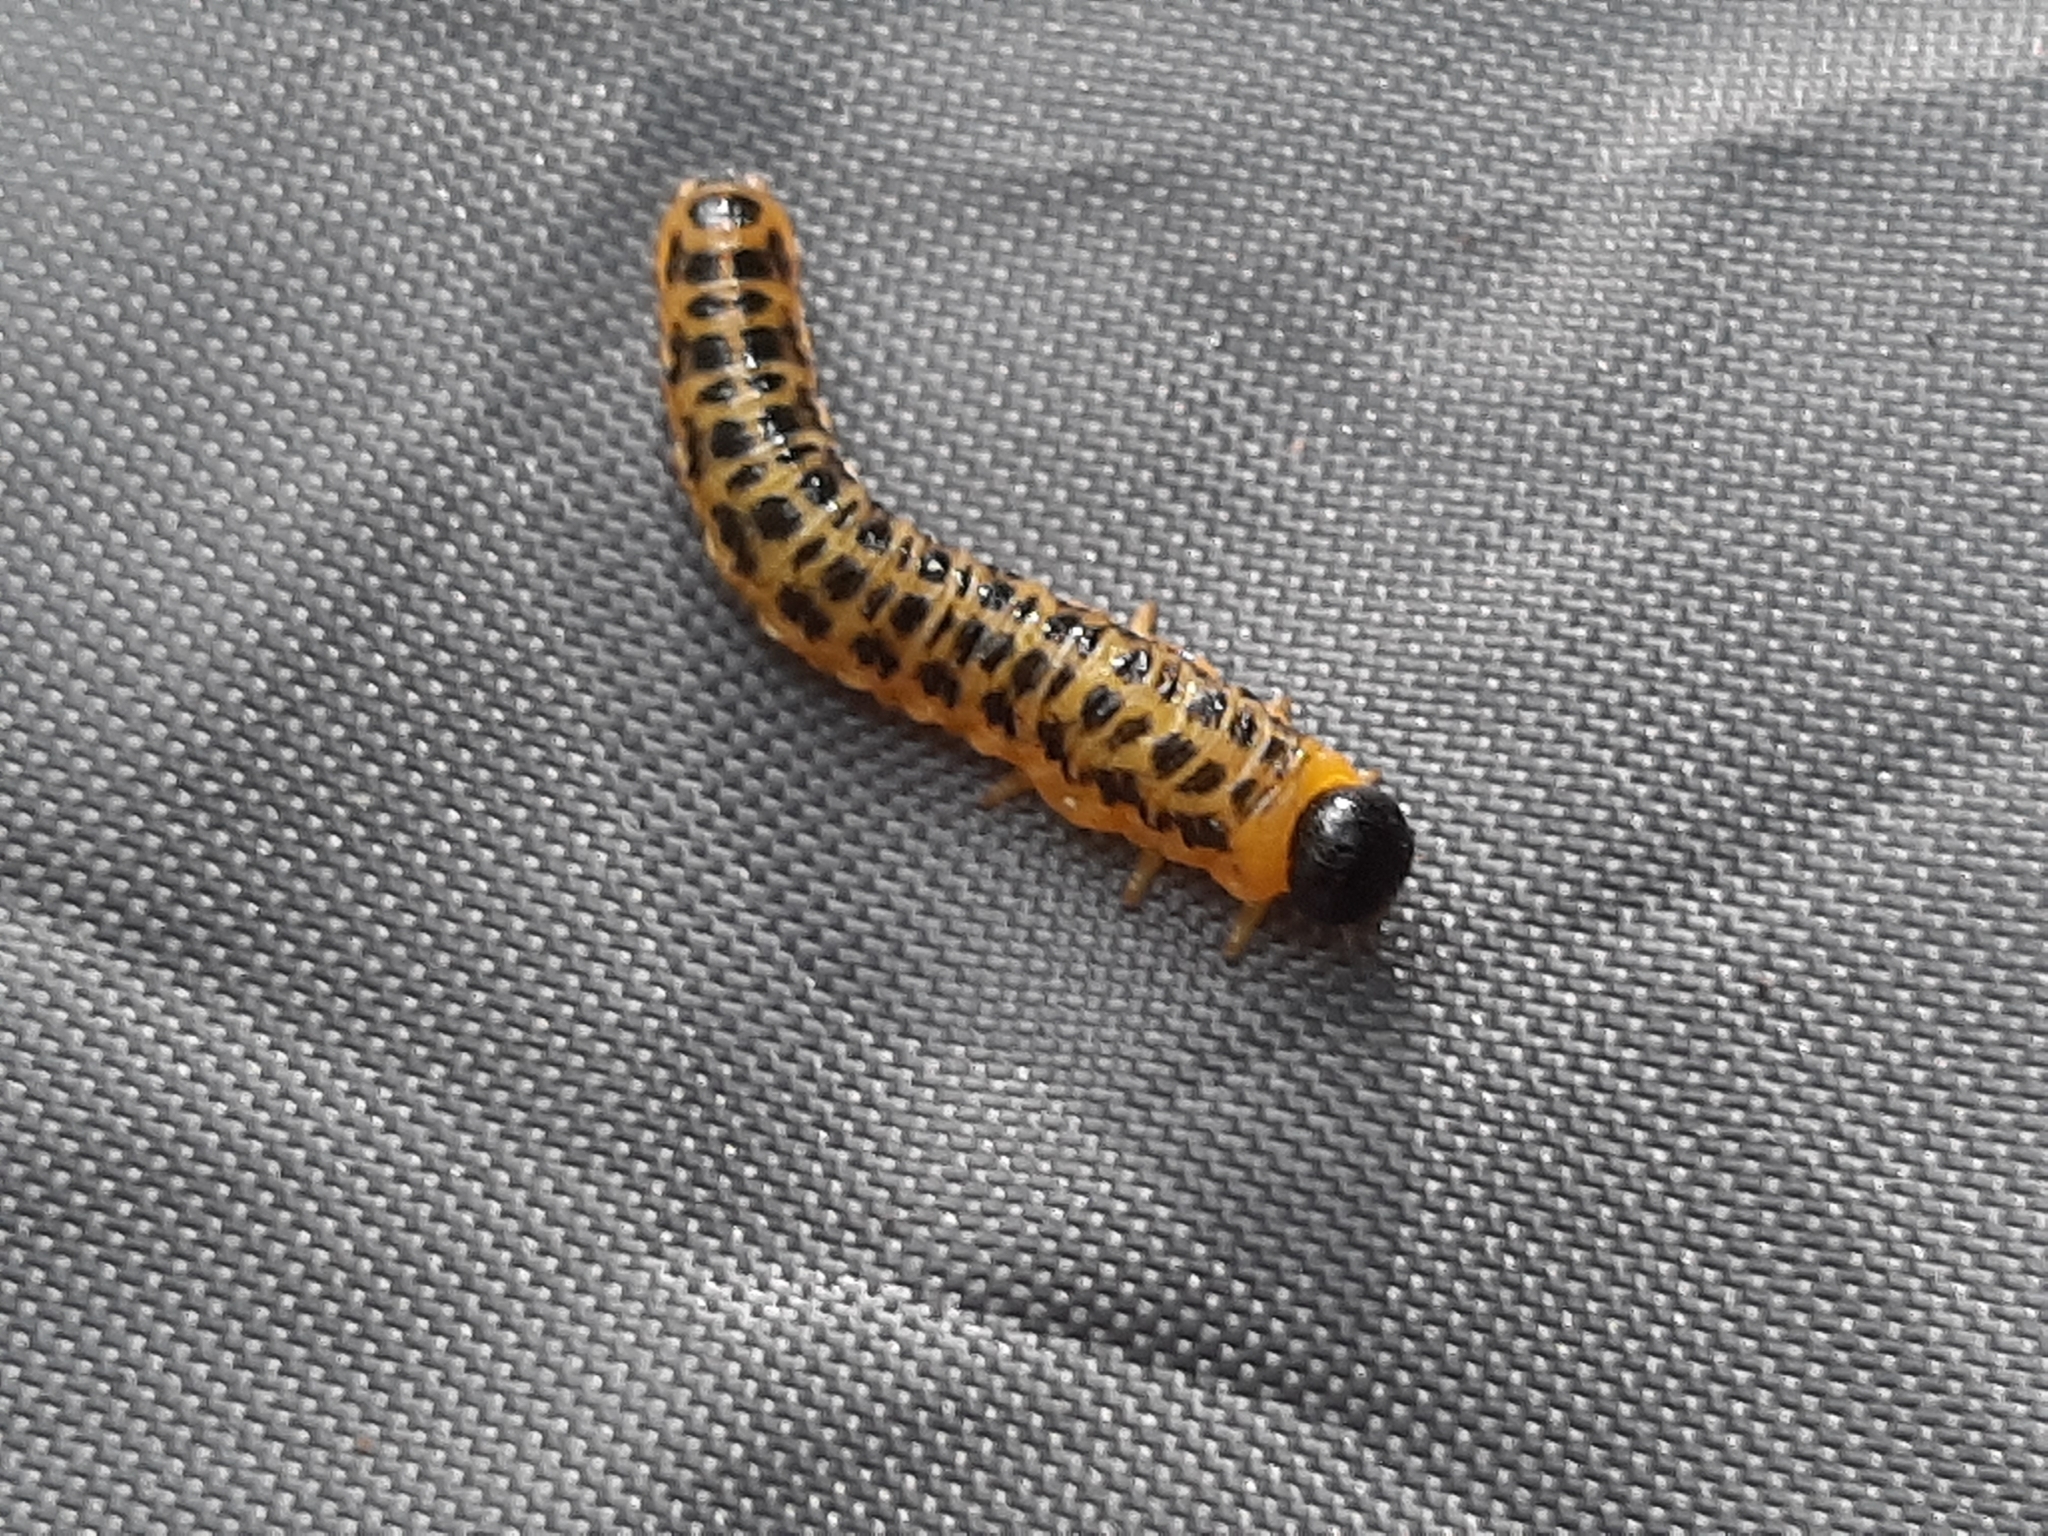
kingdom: Animalia
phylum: Arthropoda
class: Insecta
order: Hymenoptera
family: Tenthredinidae
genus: Macremphytus
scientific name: Macremphytus testaceus
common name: Dogwood sawfly
